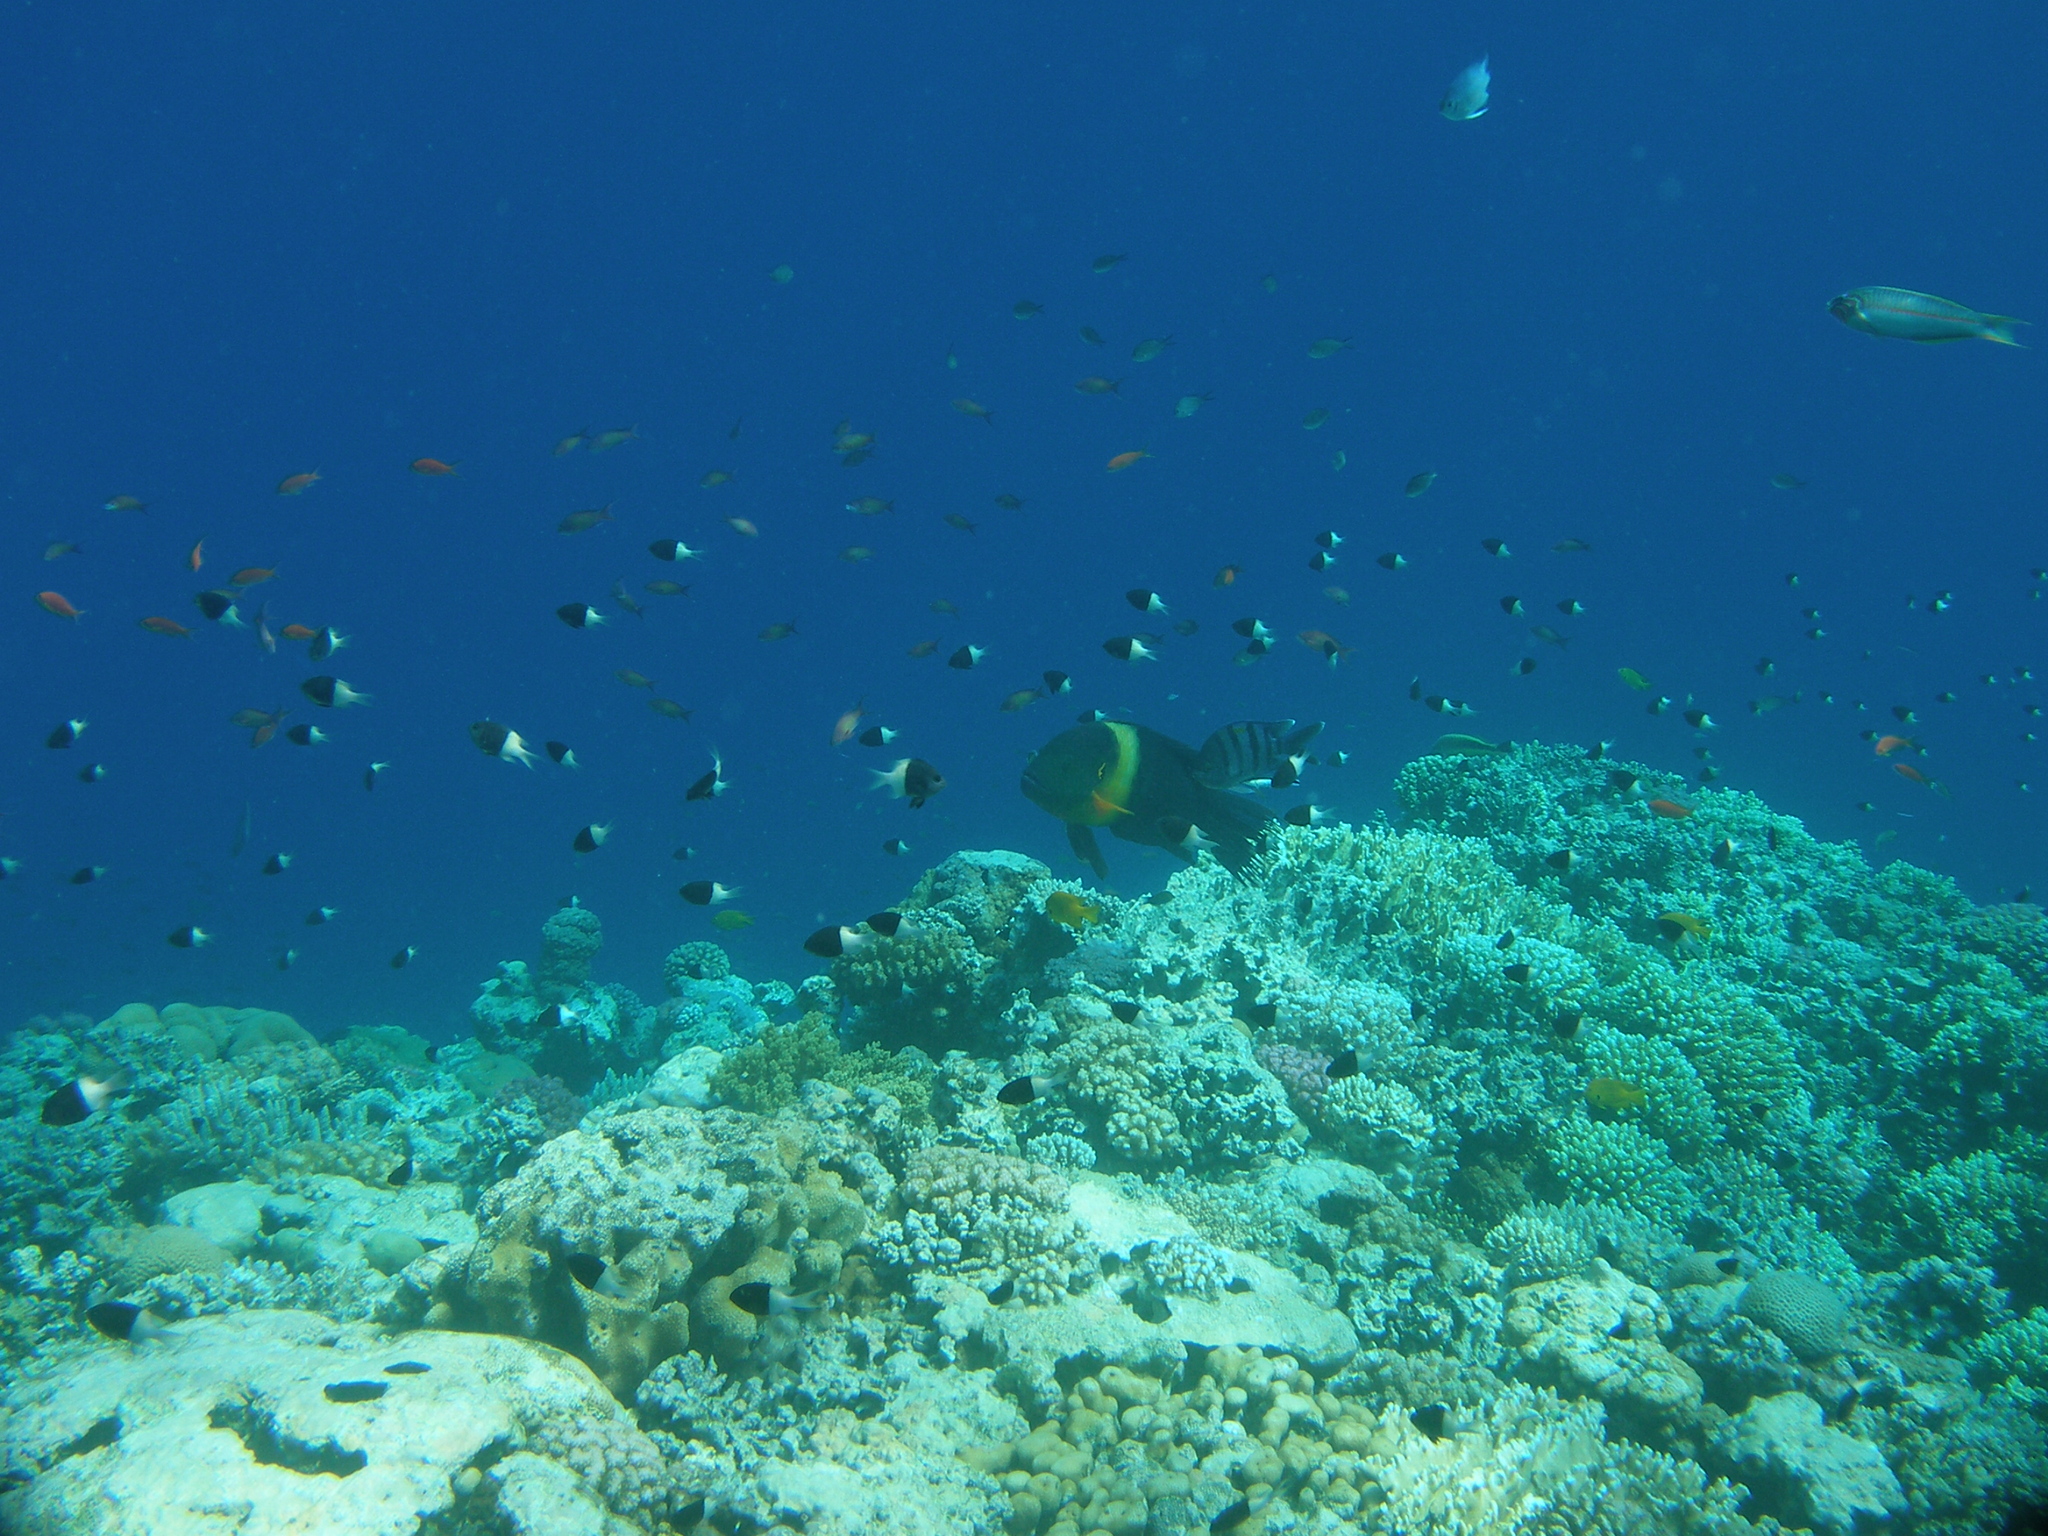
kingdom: Animalia
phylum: Chordata
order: Perciformes
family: Labridae
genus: Cheilinus
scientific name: Cheilinus lunulatus
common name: Broomtail wrasse
